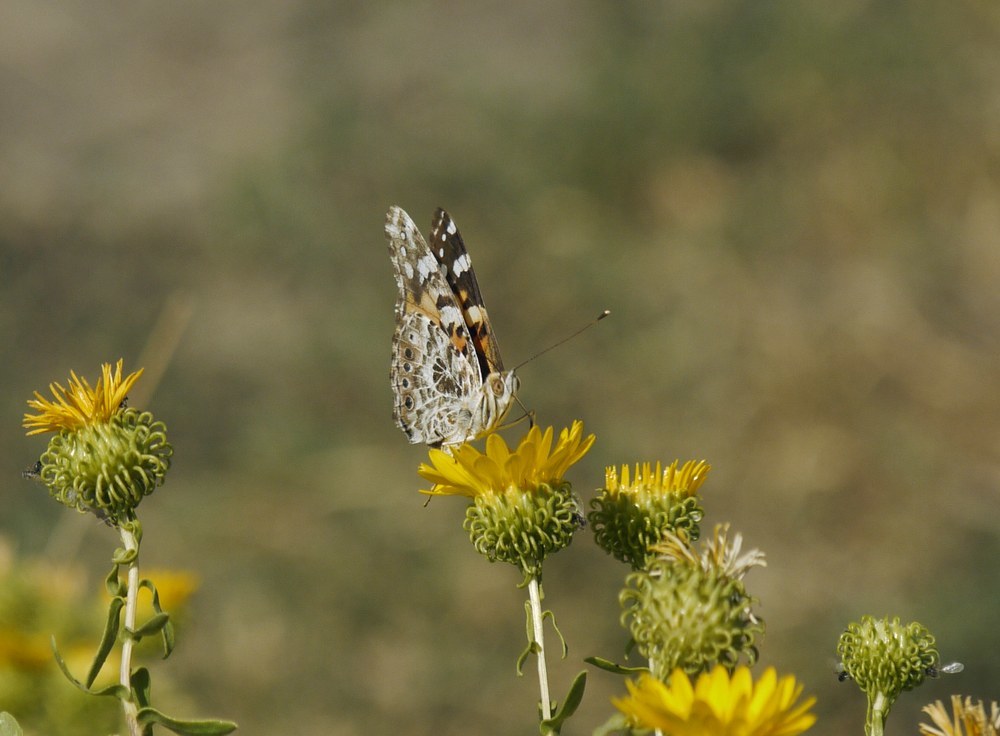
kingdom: Animalia
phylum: Arthropoda
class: Insecta
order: Lepidoptera
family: Nymphalidae
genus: Vanessa
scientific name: Vanessa cardui
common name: Painted lady
